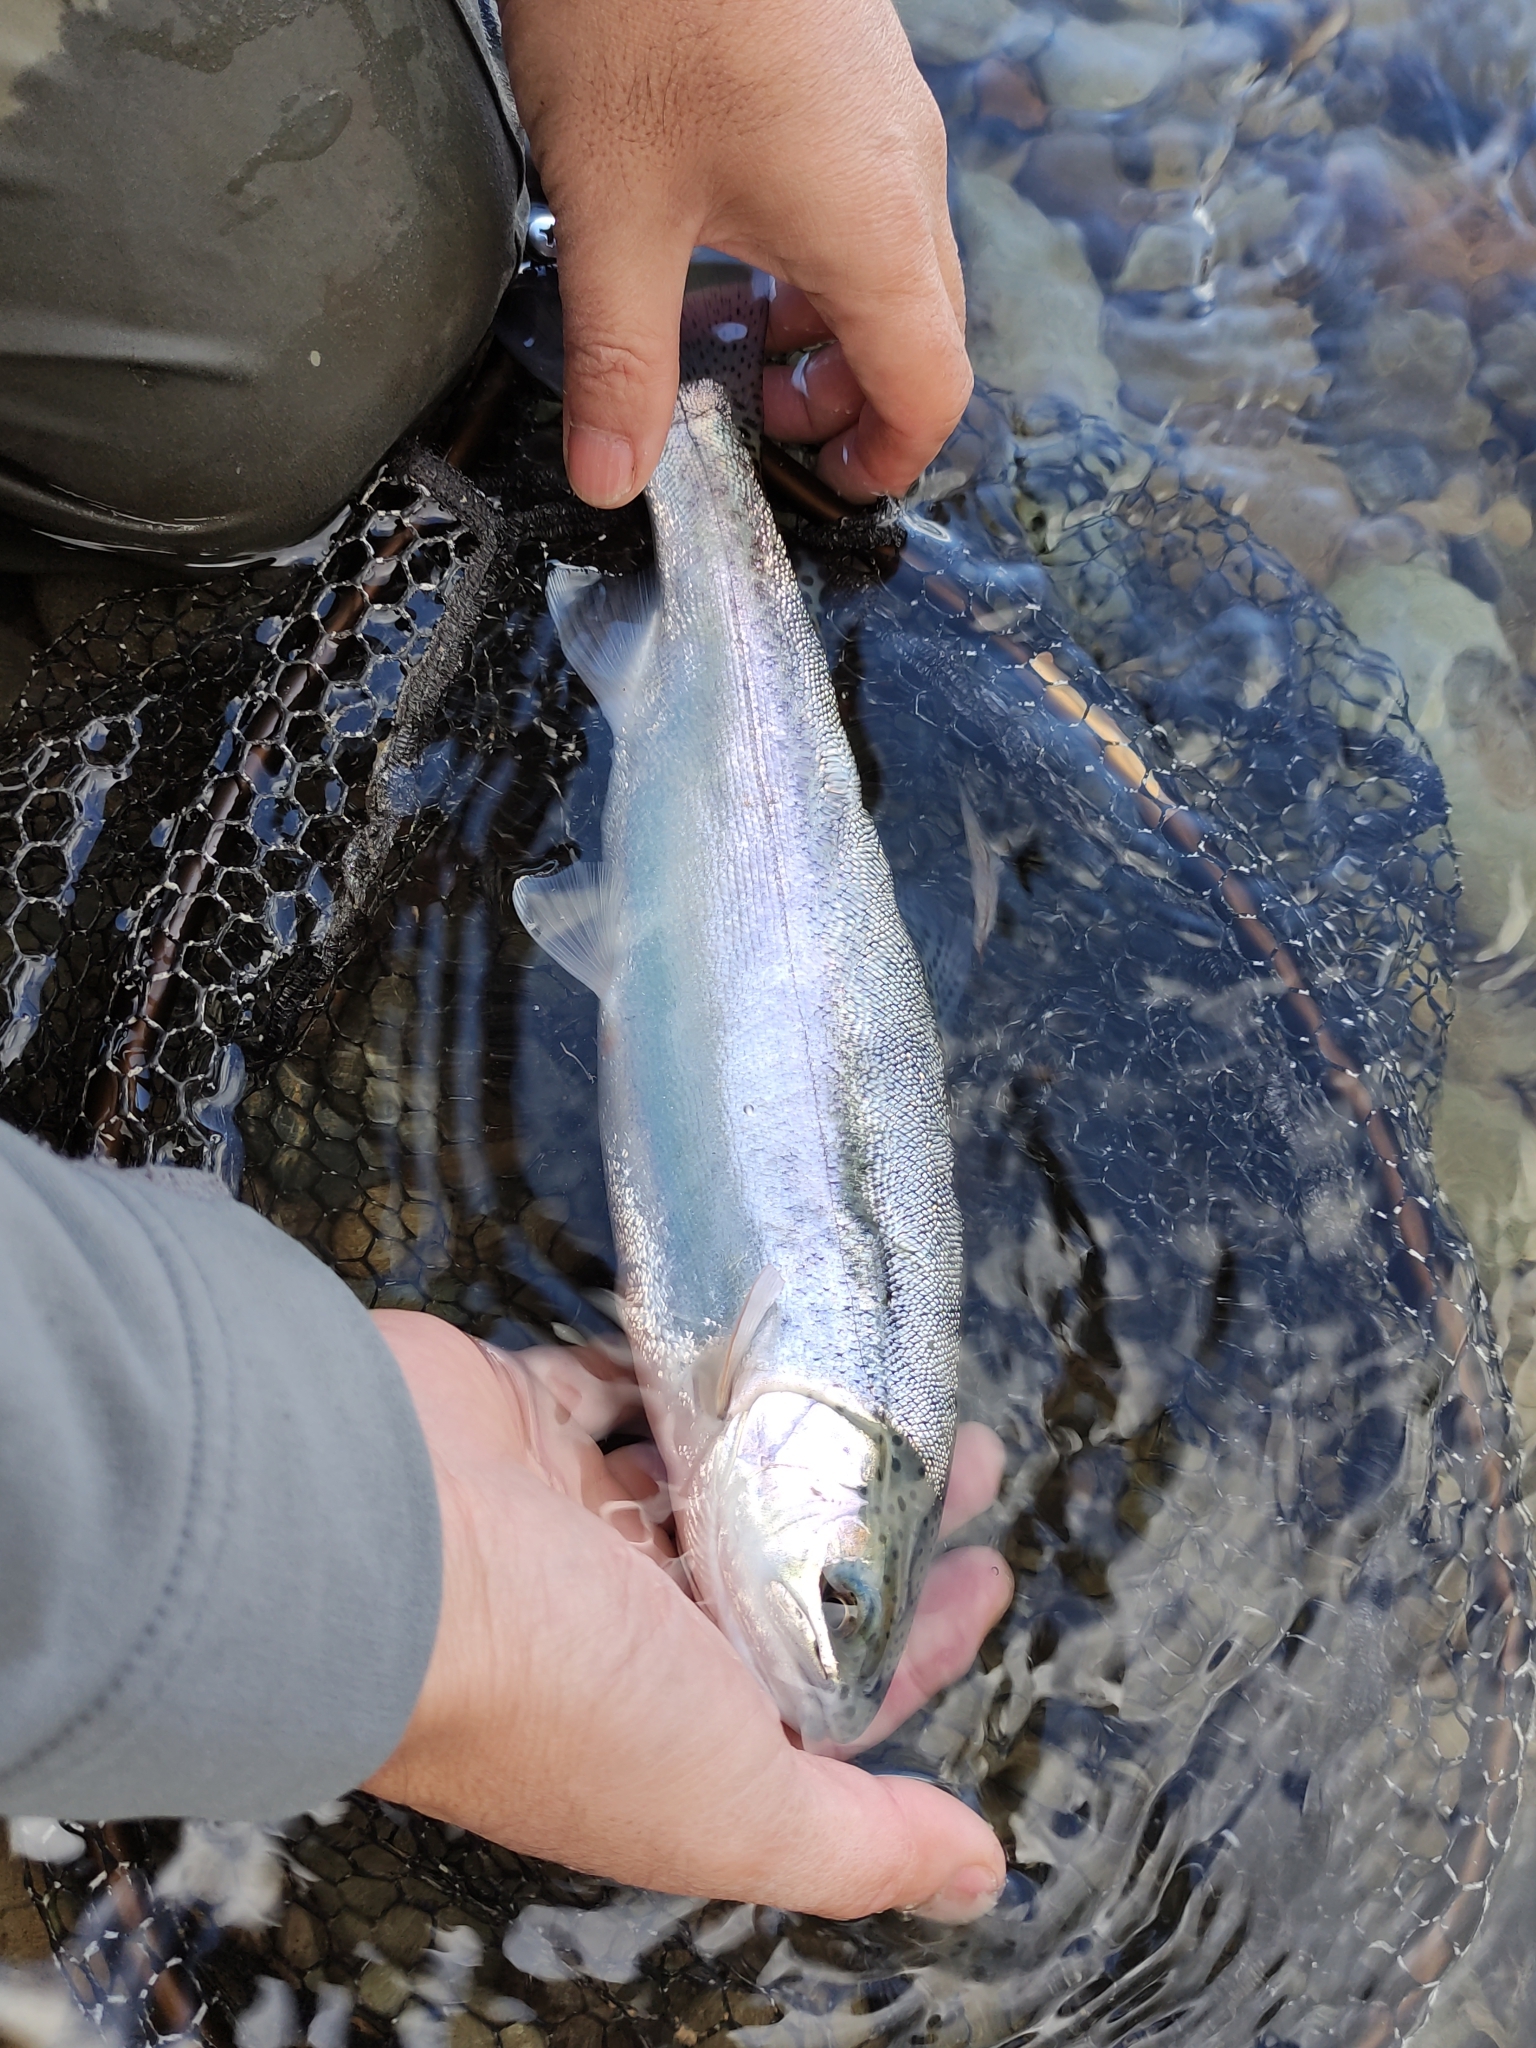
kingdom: Animalia
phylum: Chordata
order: Salmoniformes
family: Salmonidae
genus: Oncorhynchus
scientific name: Oncorhynchus mykiss
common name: Rainbow trout
